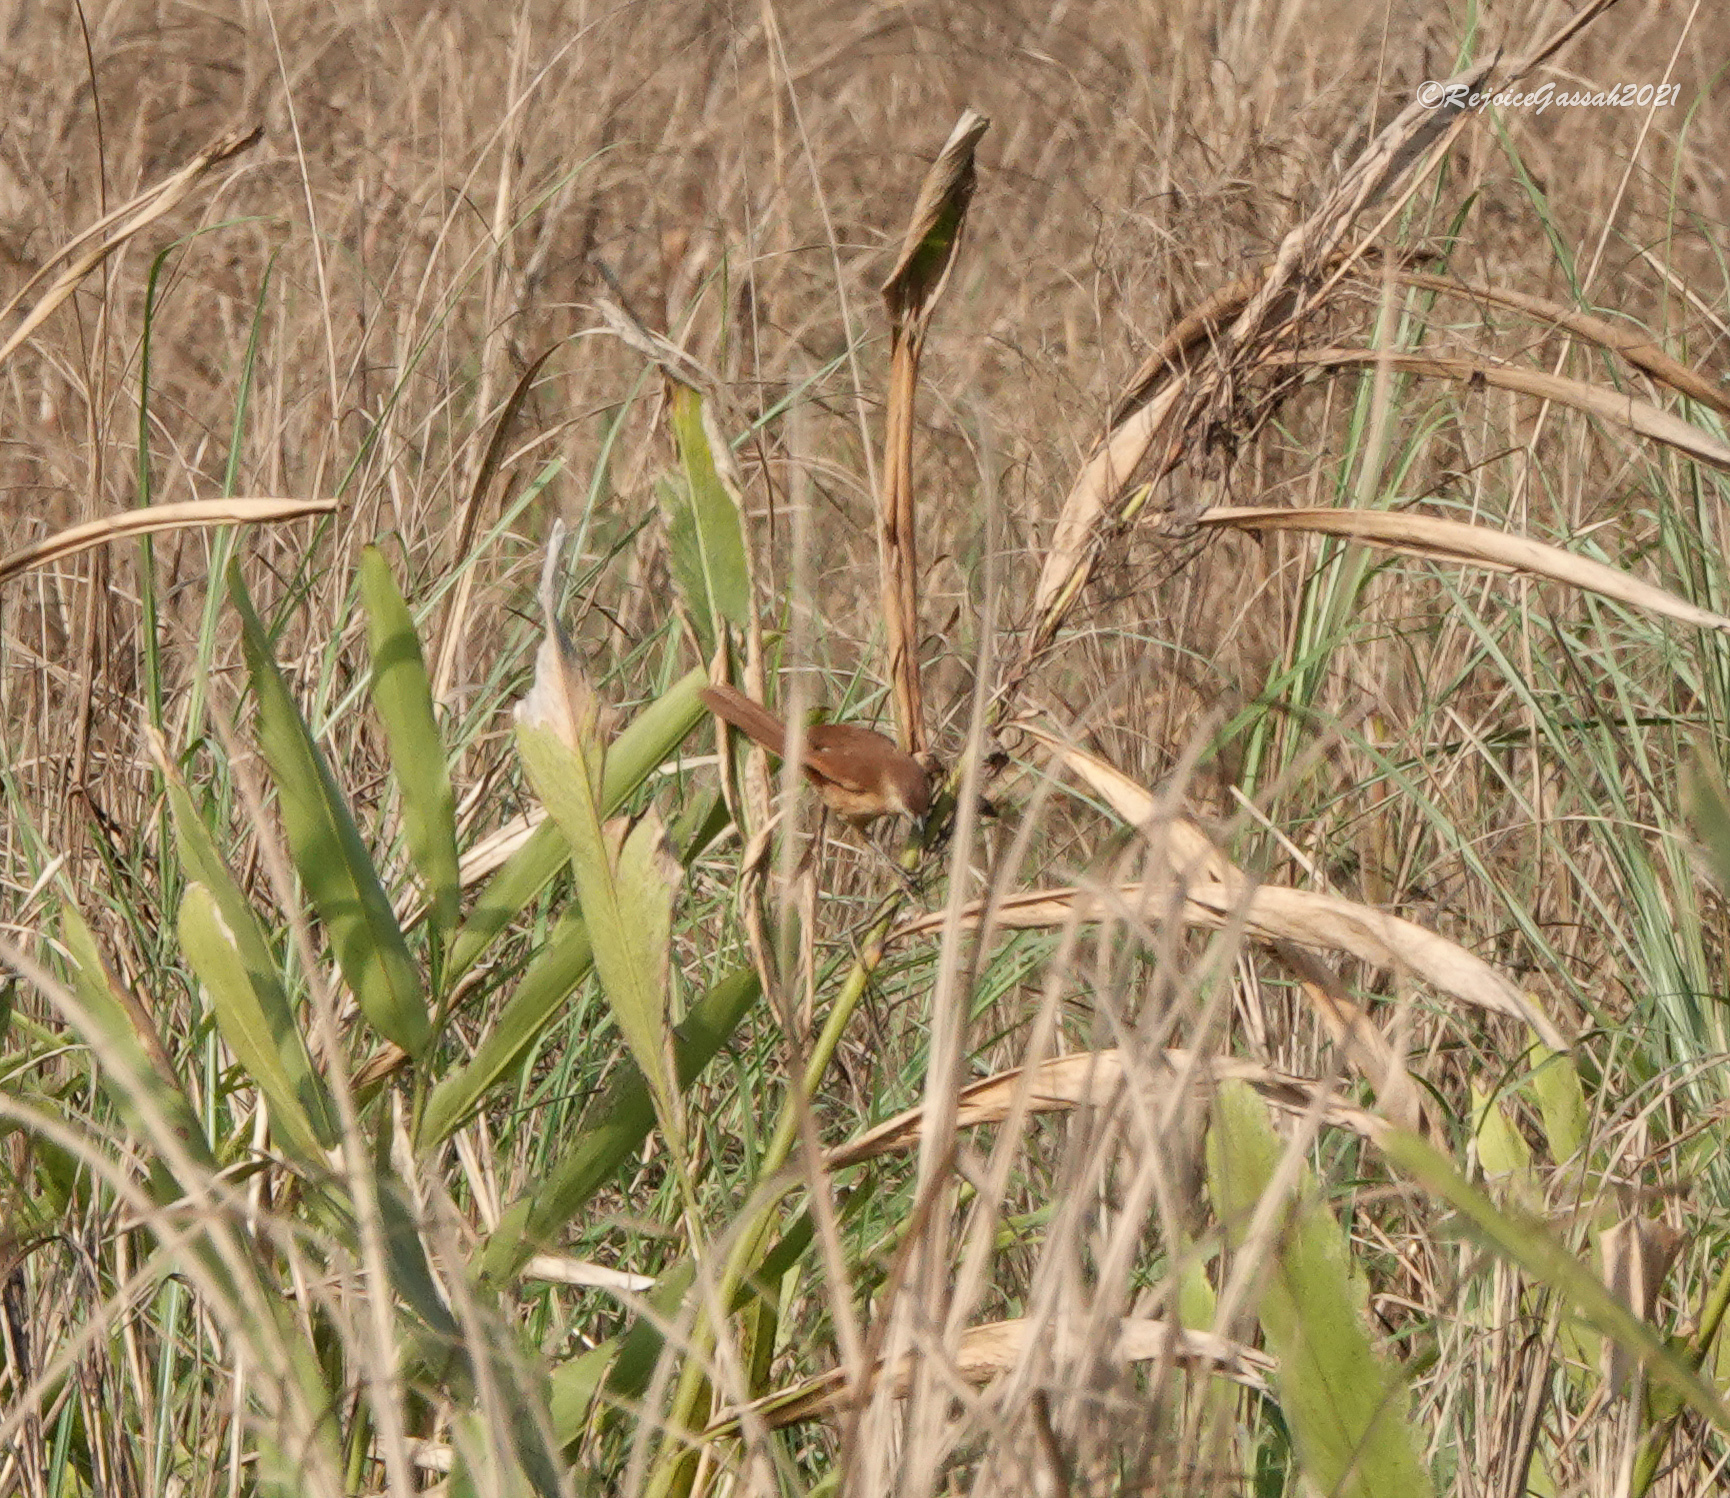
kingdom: Animalia
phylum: Chordata
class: Aves
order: Passeriformes
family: Leiothrichidae
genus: Argya
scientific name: Argya longirostris
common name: Slender-billed babbler
